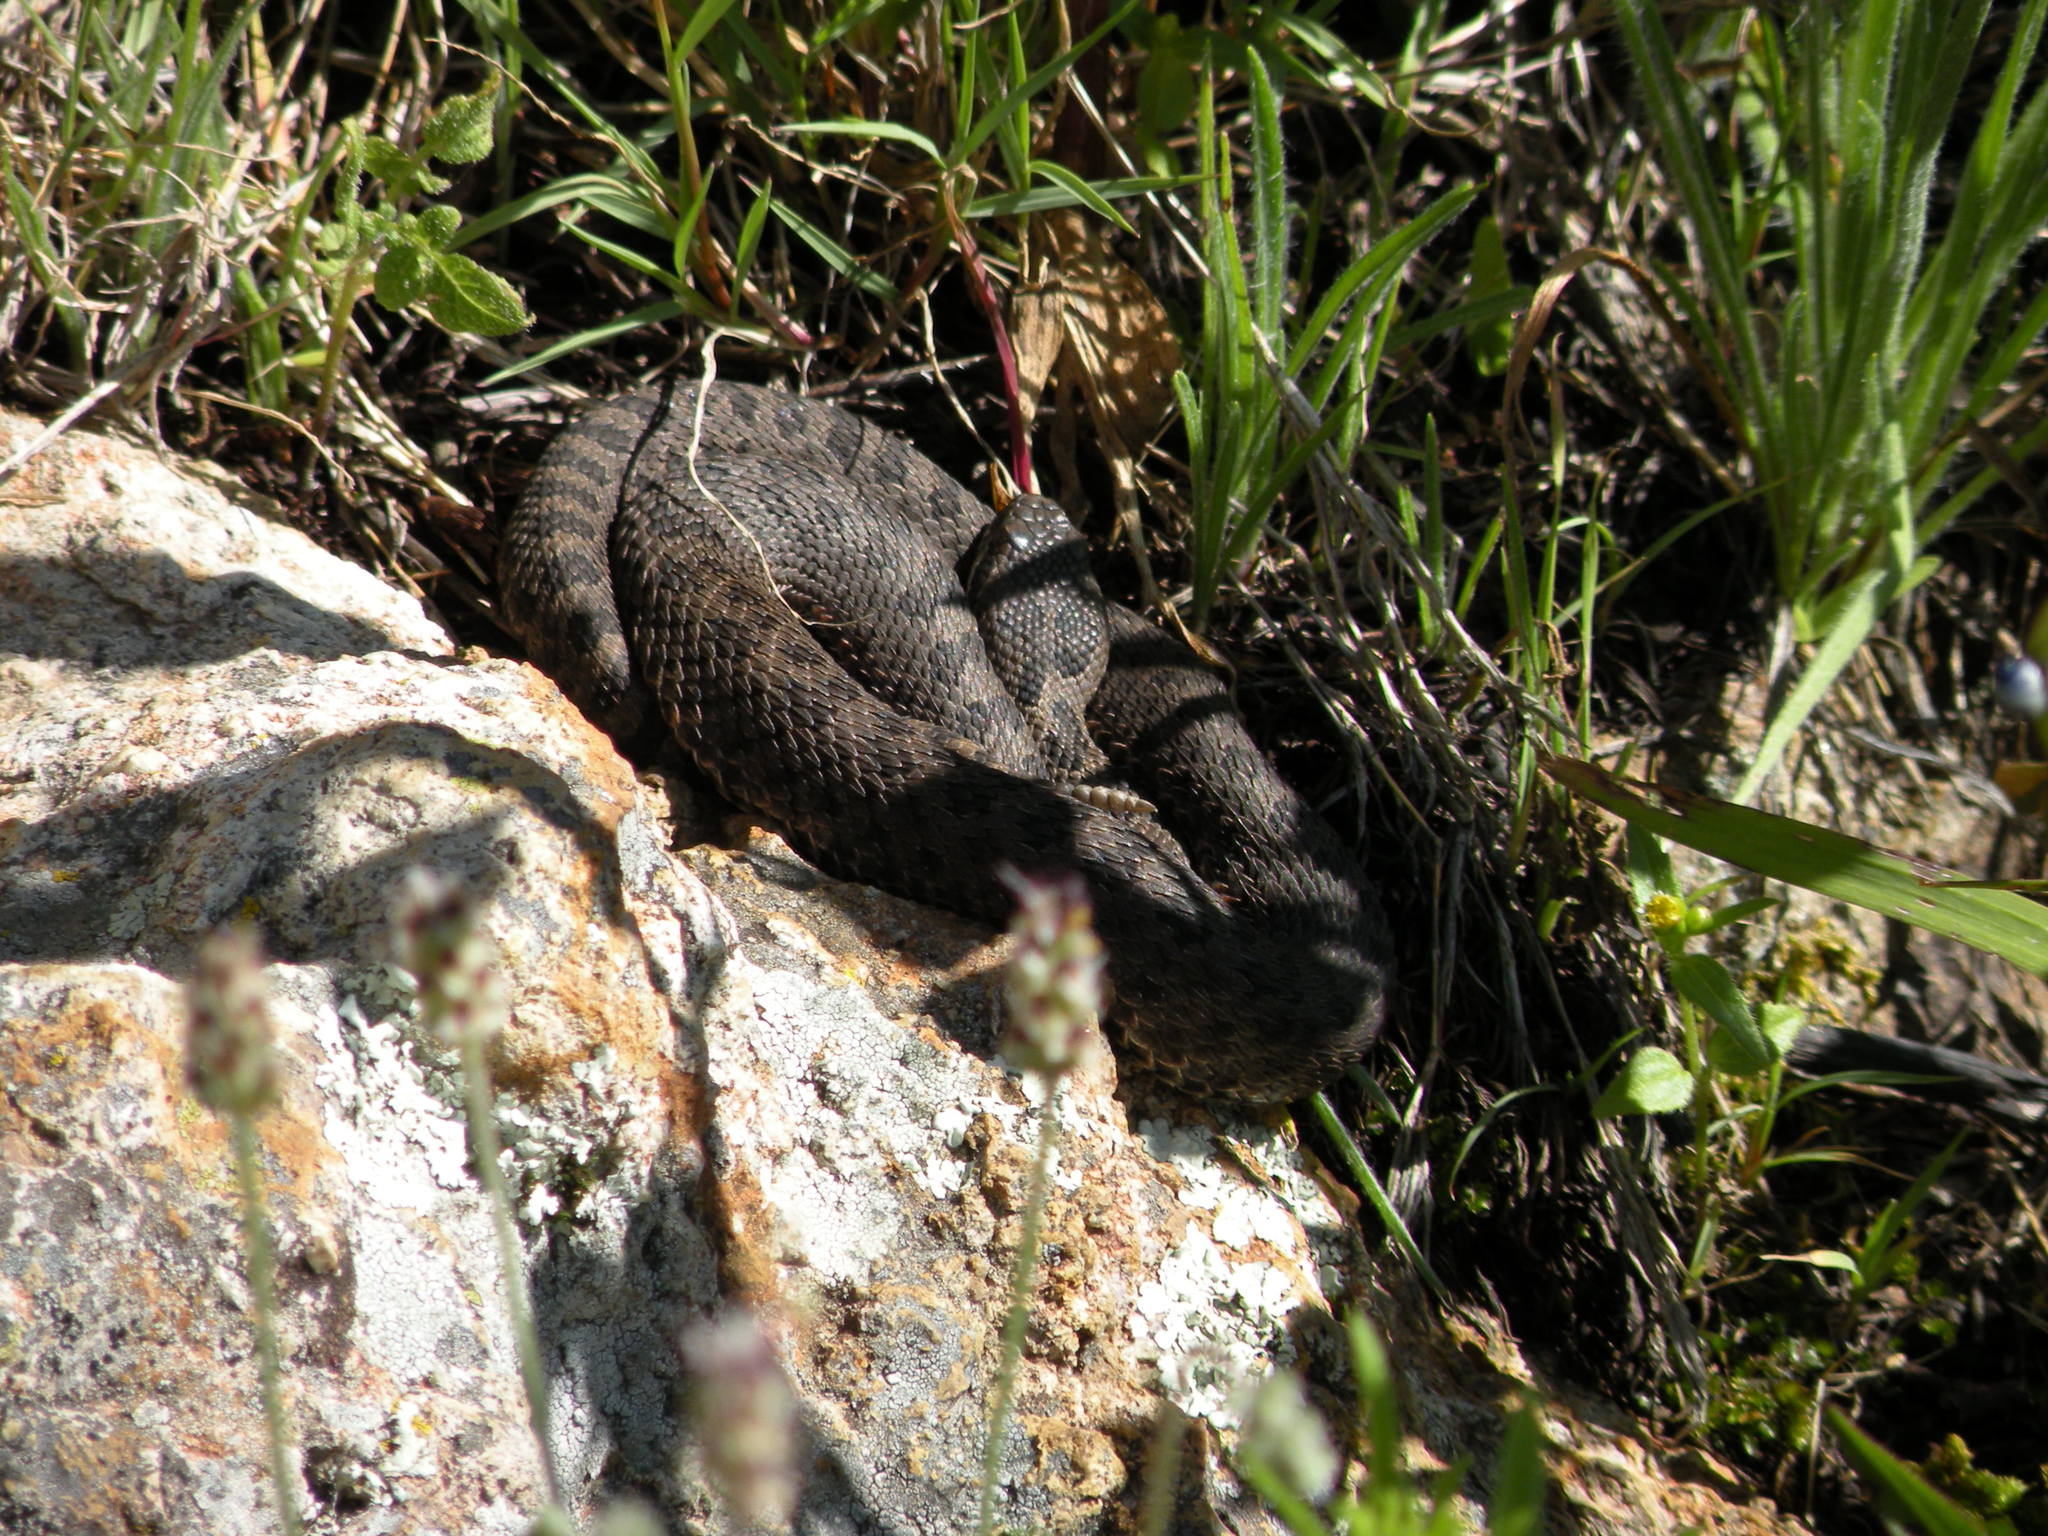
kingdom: Animalia
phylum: Chordata
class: Squamata
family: Viperidae
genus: Crotalus
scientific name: Crotalus pricei
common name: Twin-spotted rattlesnake
